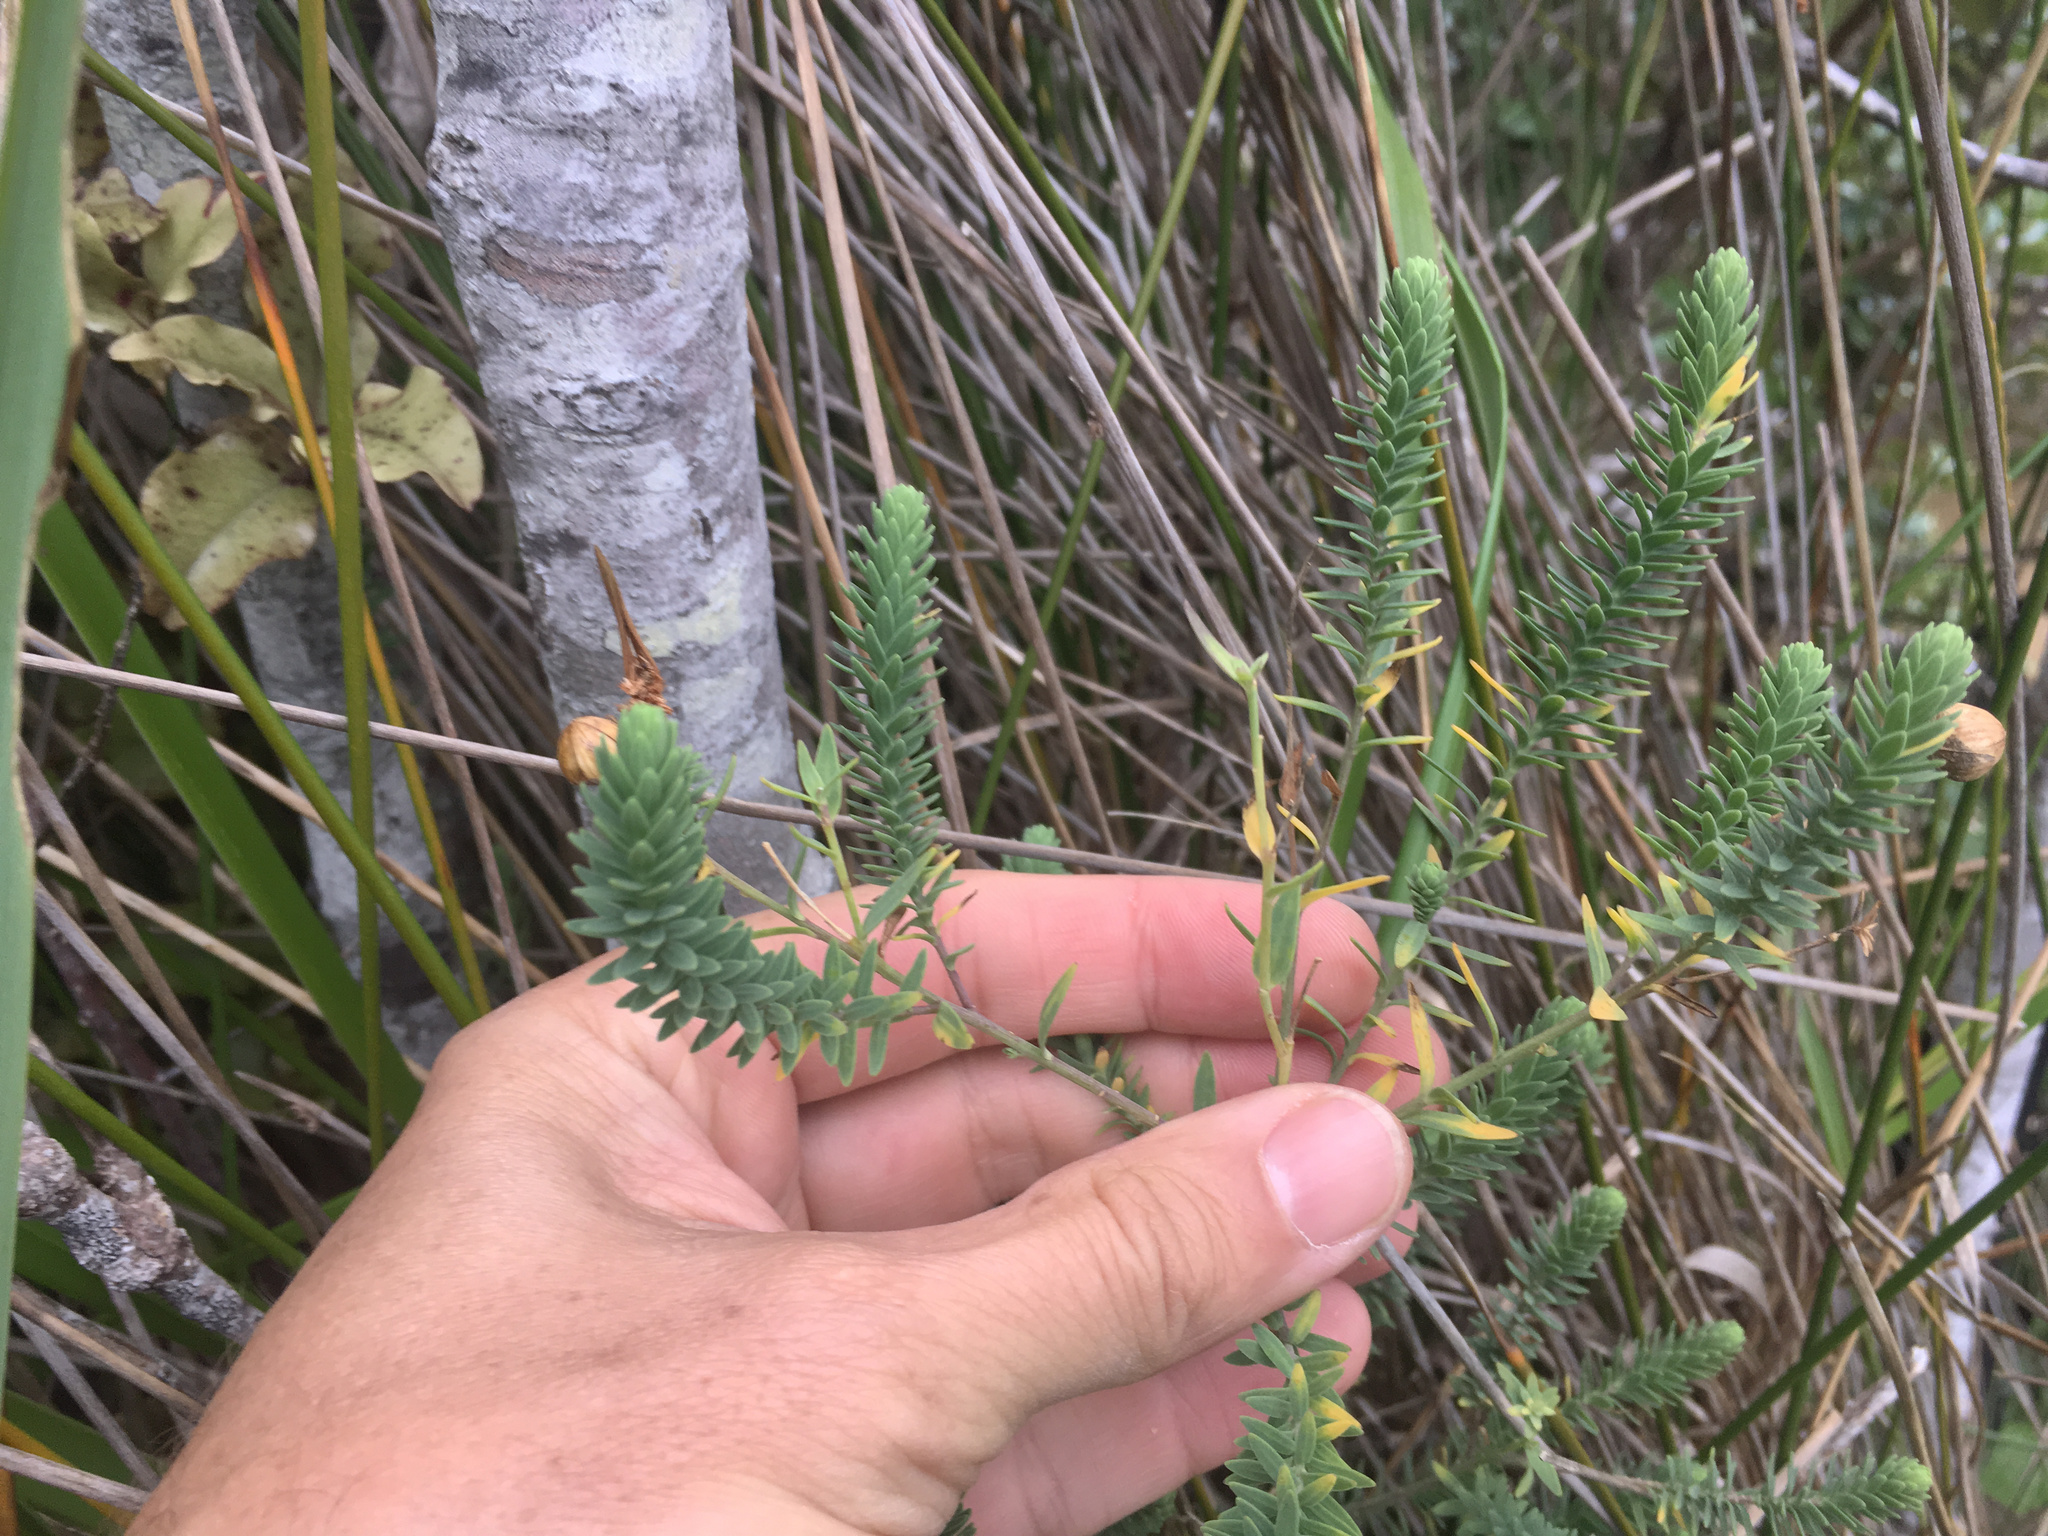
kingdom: Plantae
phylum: Tracheophyta
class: Magnoliopsida
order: Malpighiales
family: Linaceae
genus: Linum
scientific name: Linum monogynum
